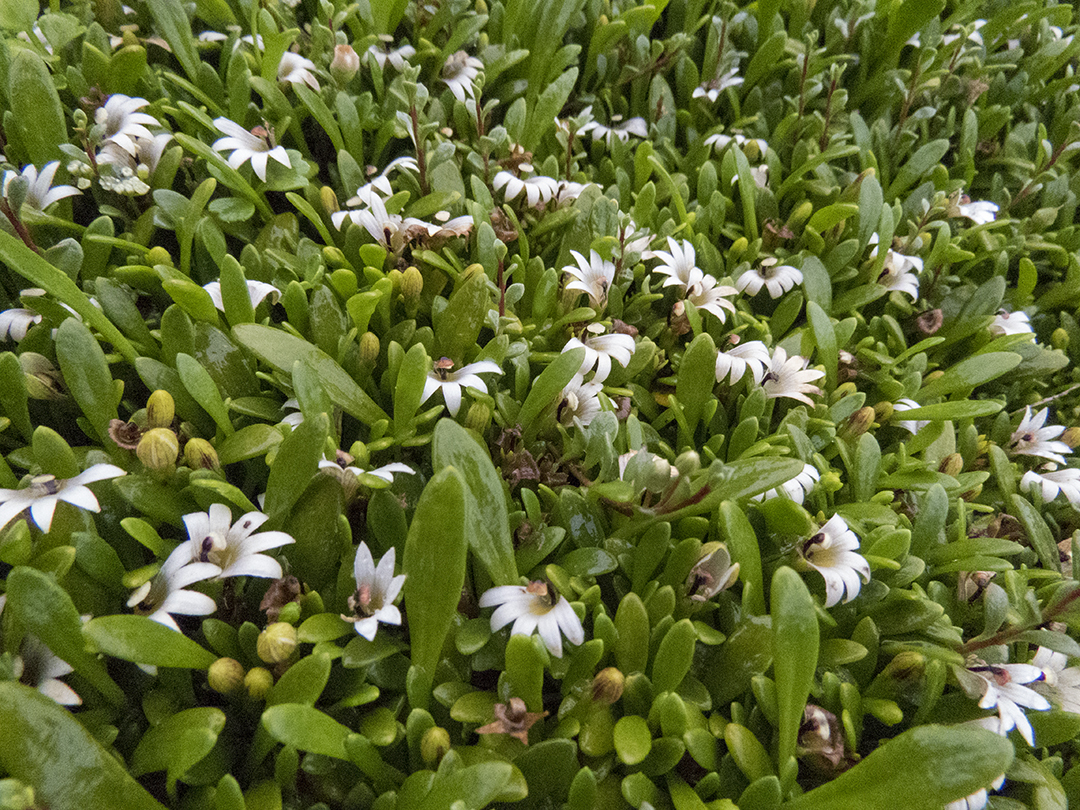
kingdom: Plantae
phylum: Tracheophyta
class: Magnoliopsida
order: Asterales
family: Goodeniaceae
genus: Goodenia
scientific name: Goodenia radicans
